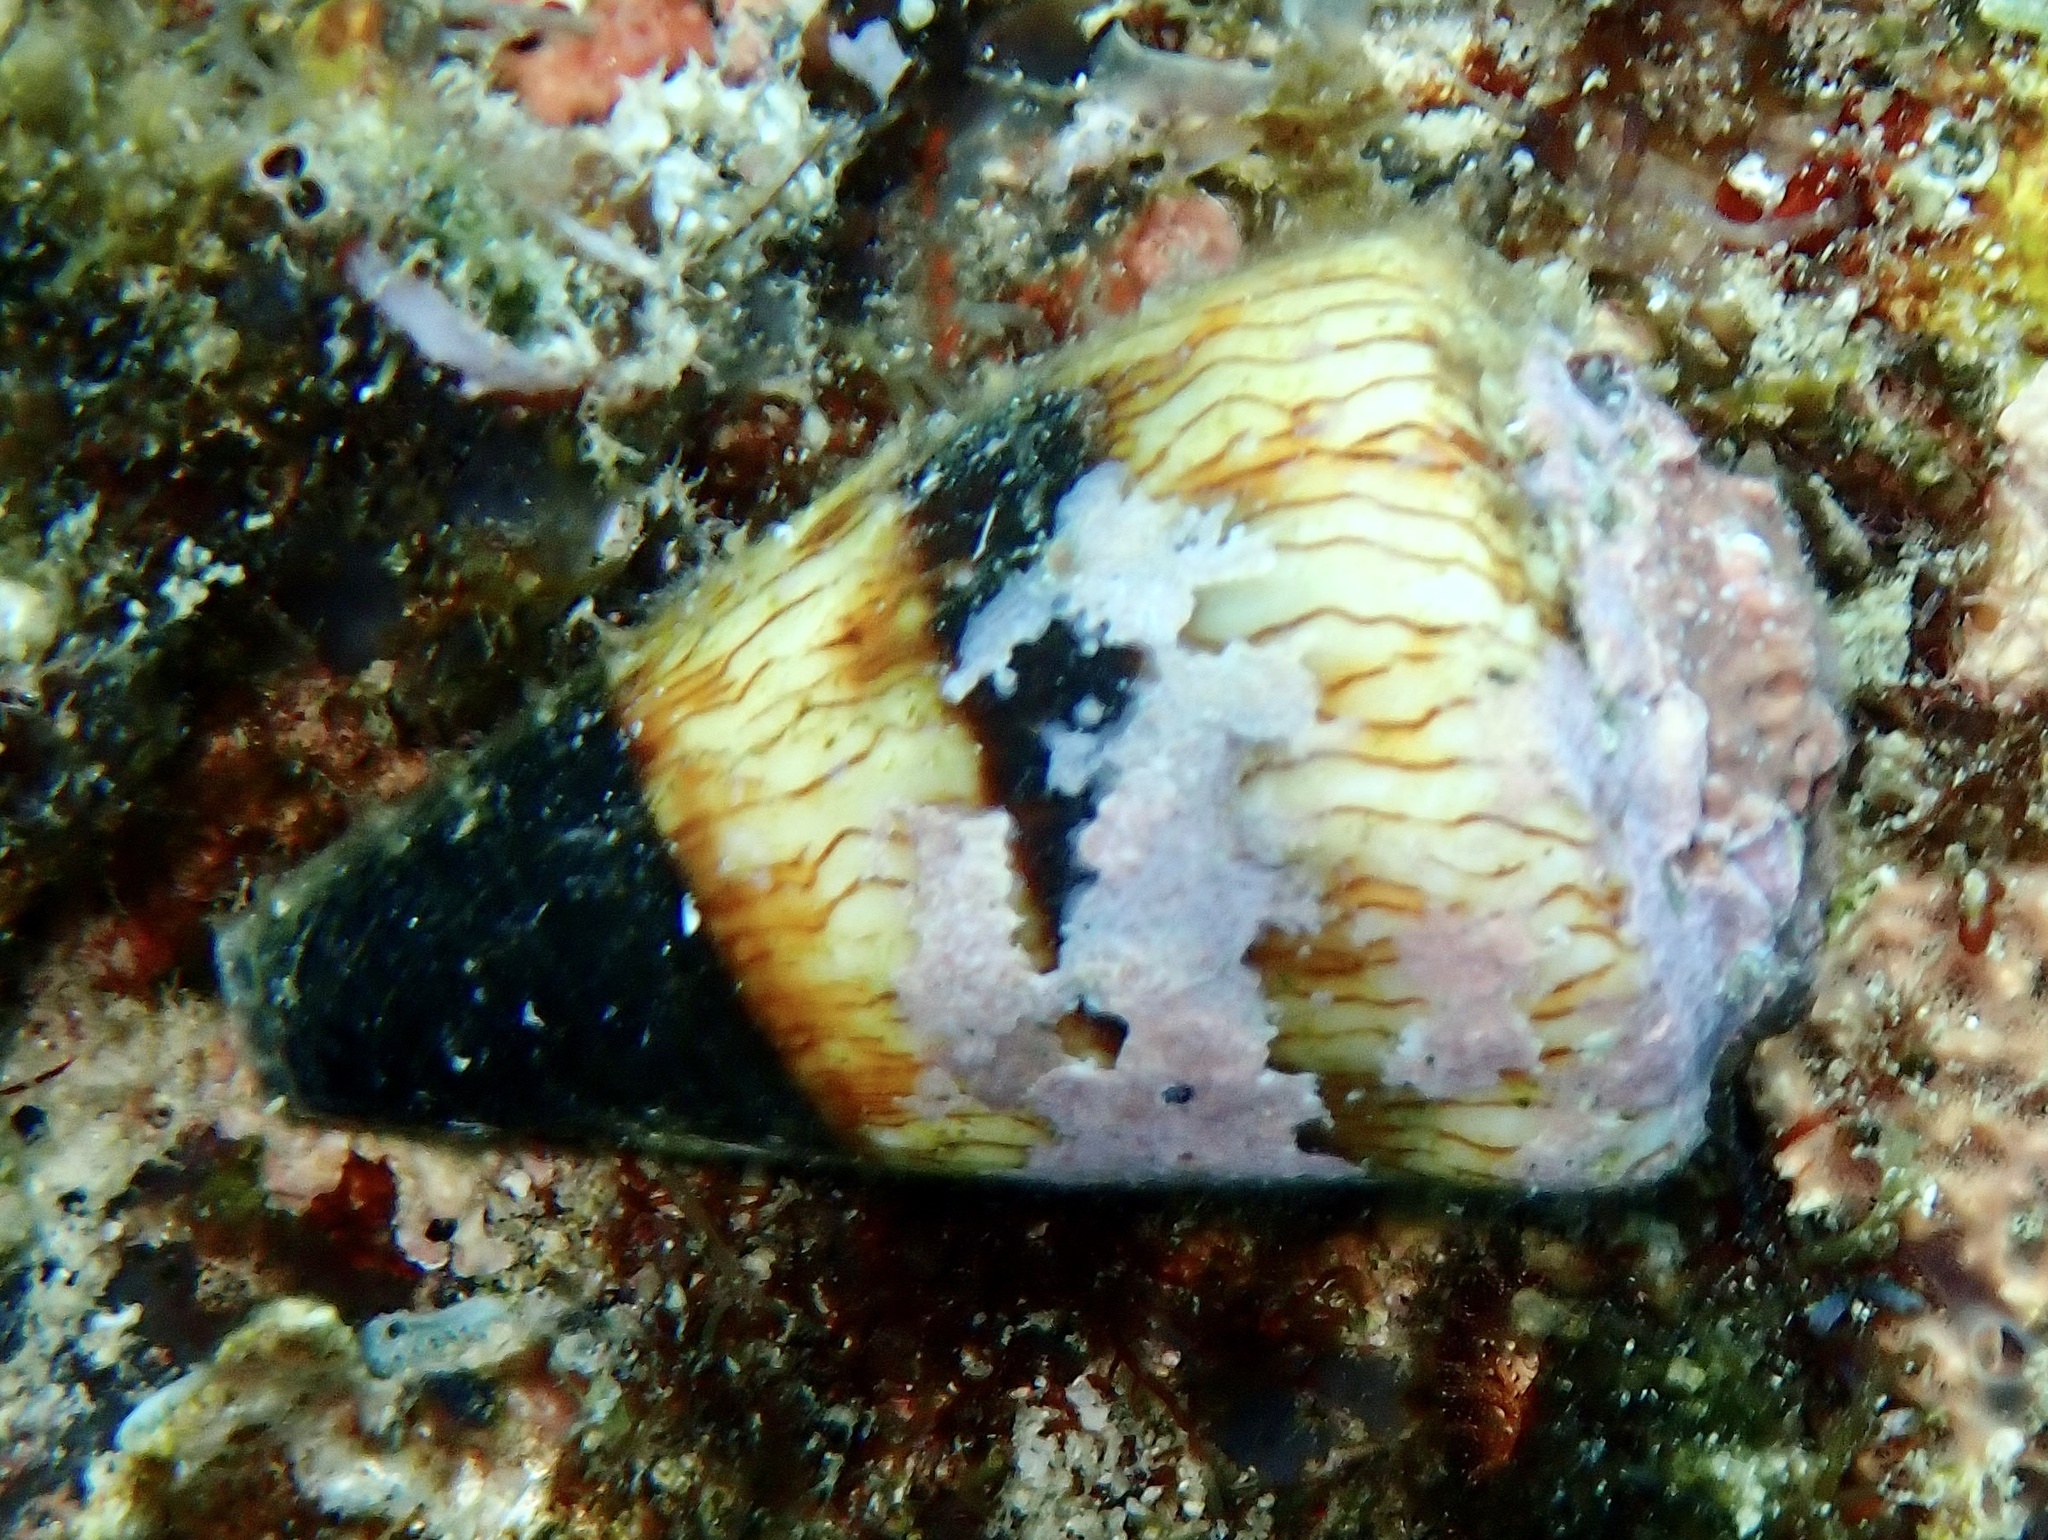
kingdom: Animalia
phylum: Mollusca
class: Gastropoda
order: Neogastropoda
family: Conidae
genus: Conus
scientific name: Conus miles
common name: Soldier cone
